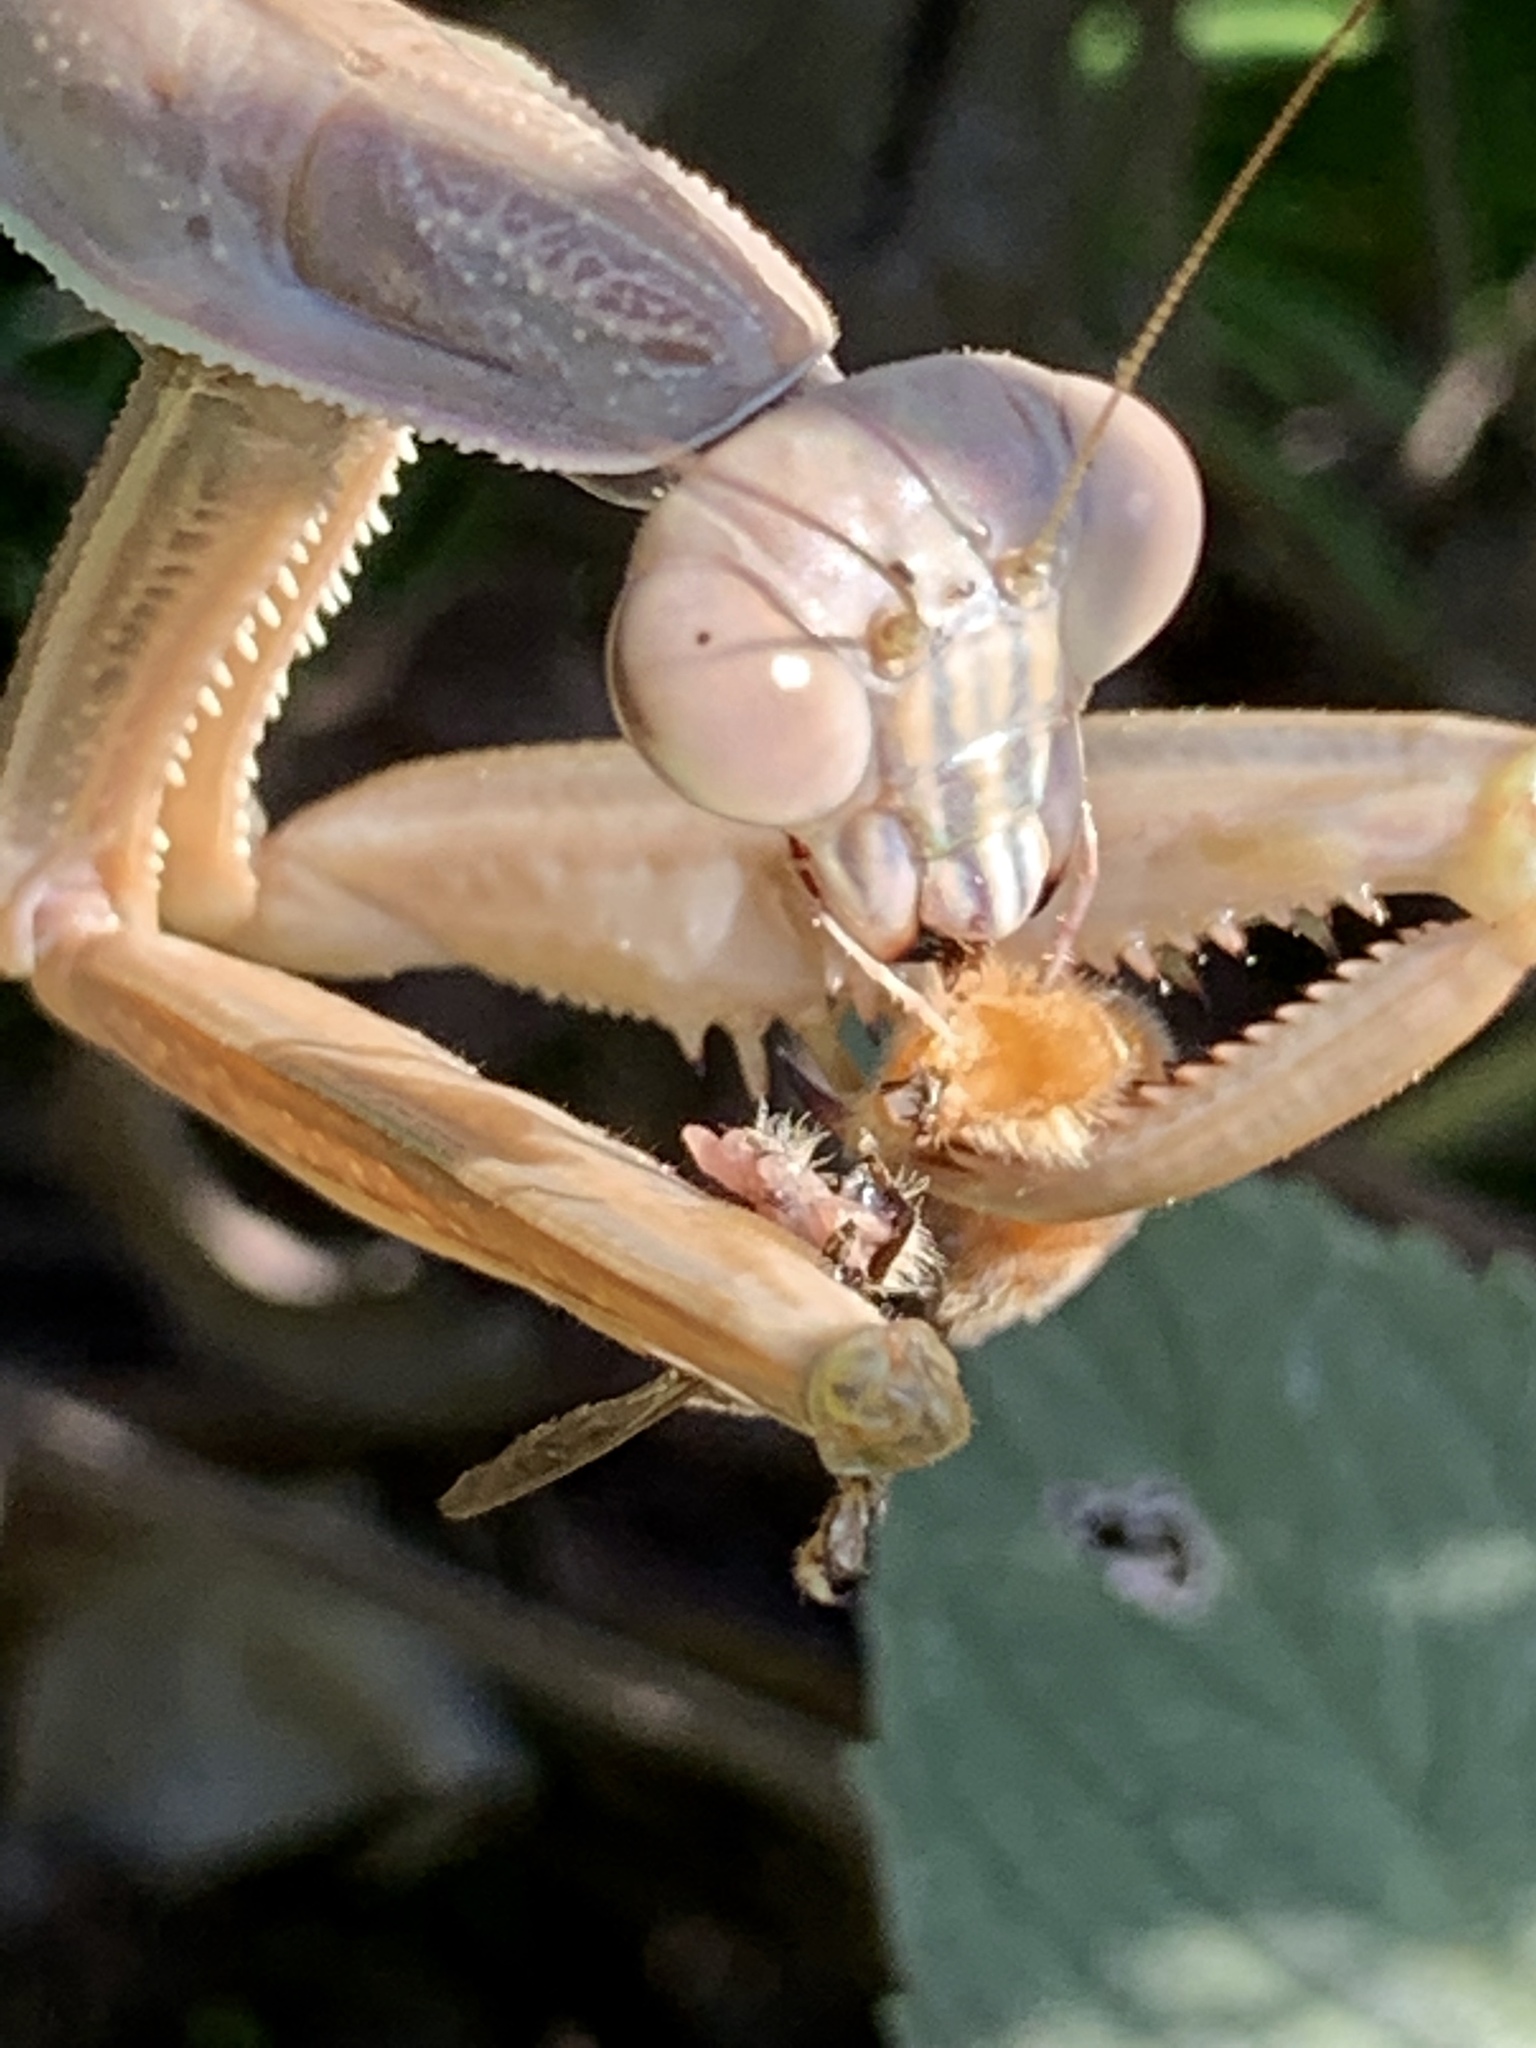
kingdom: Animalia
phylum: Arthropoda
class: Insecta
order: Mantodea
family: Mantidae
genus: Tenodera
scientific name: Tenodera sinensis
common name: Chinese mantis
